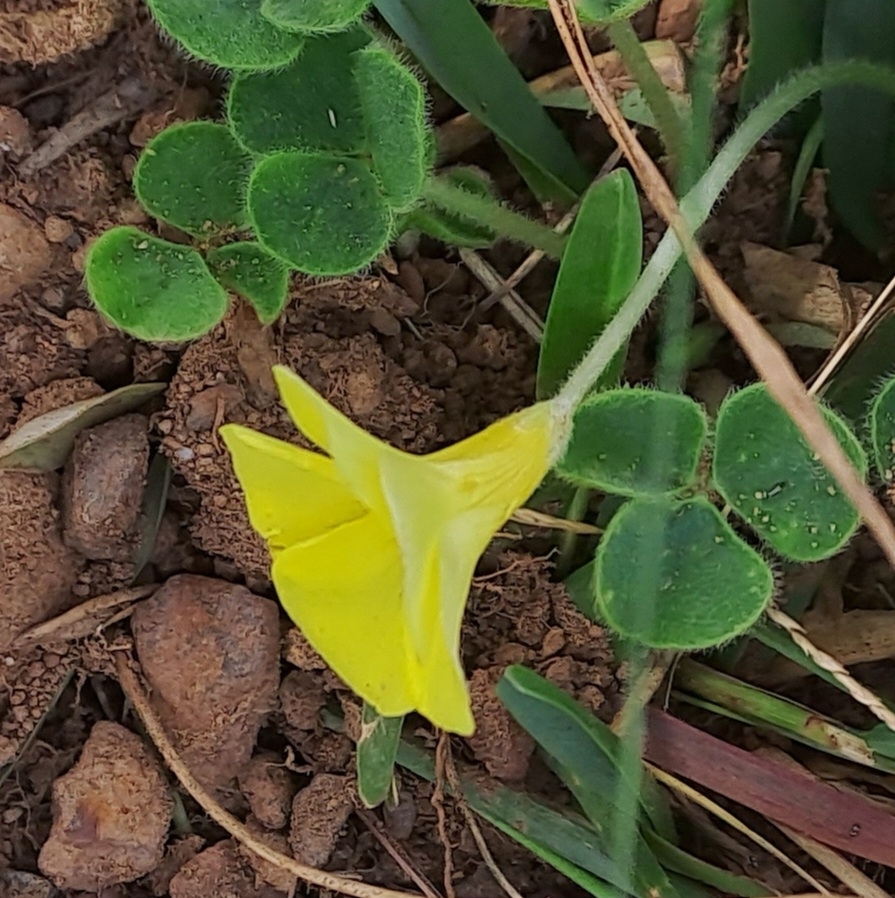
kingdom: Plantae
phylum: Tracheophyta
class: Magnoliopsida
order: Oxalidales
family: Oxalidaceae
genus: Oxalis
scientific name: Oxalis luteola
